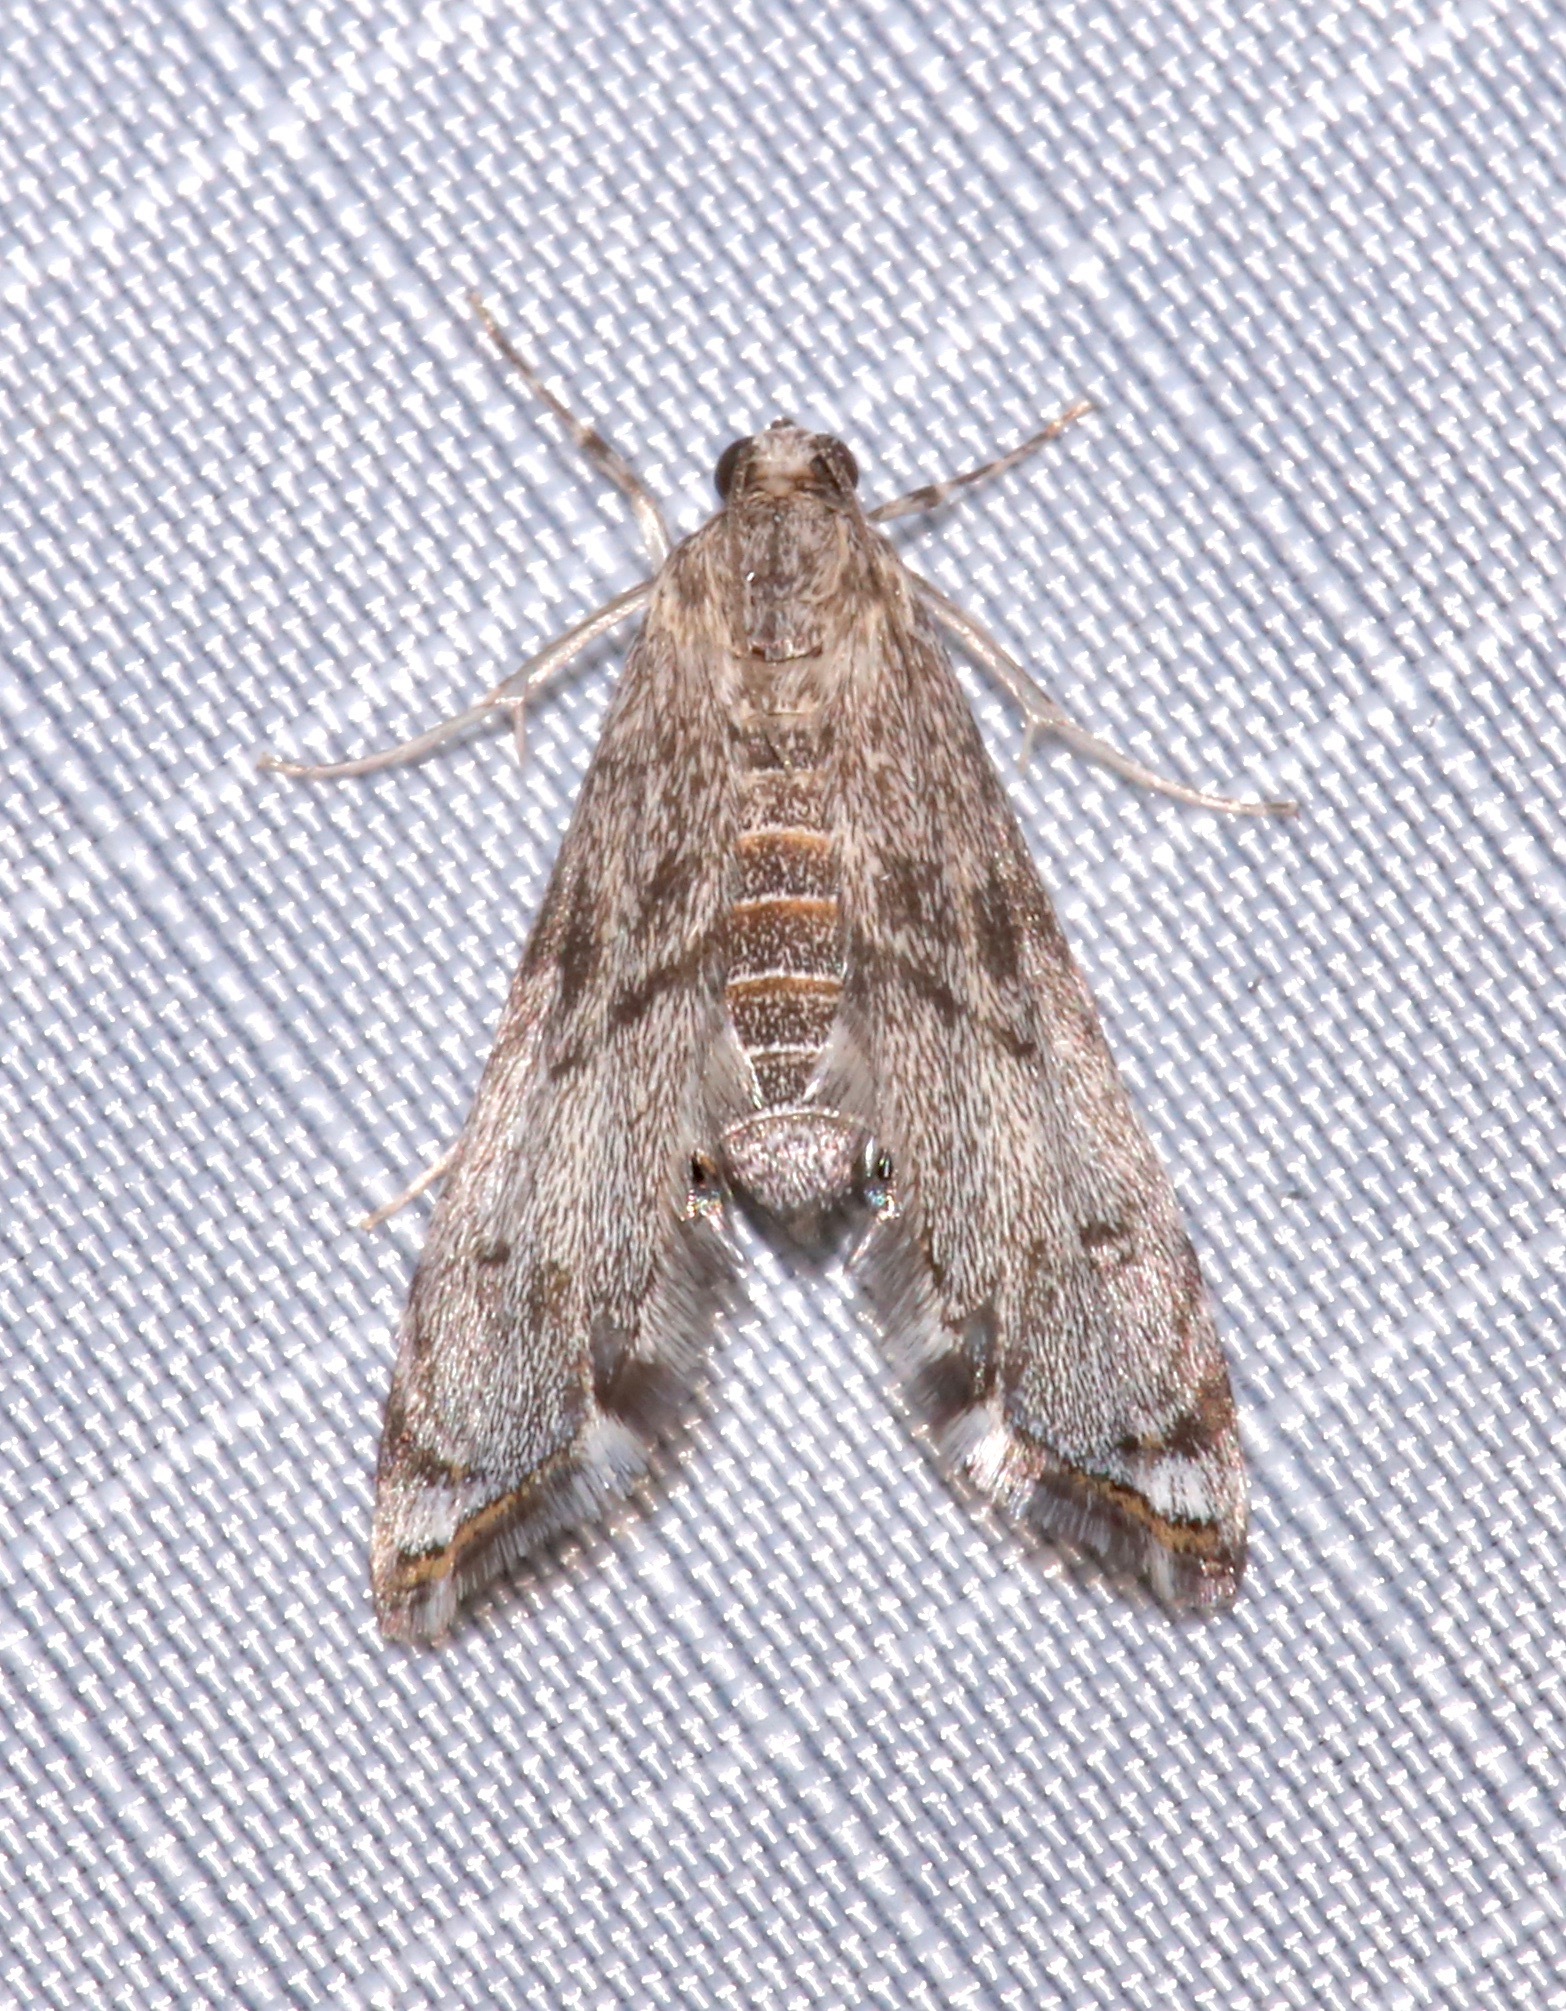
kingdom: Animalia
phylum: Arthropoda
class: Insecta
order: Lepidoptera
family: Crambidae
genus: Petrophila
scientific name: Petrophila schaefferalis
